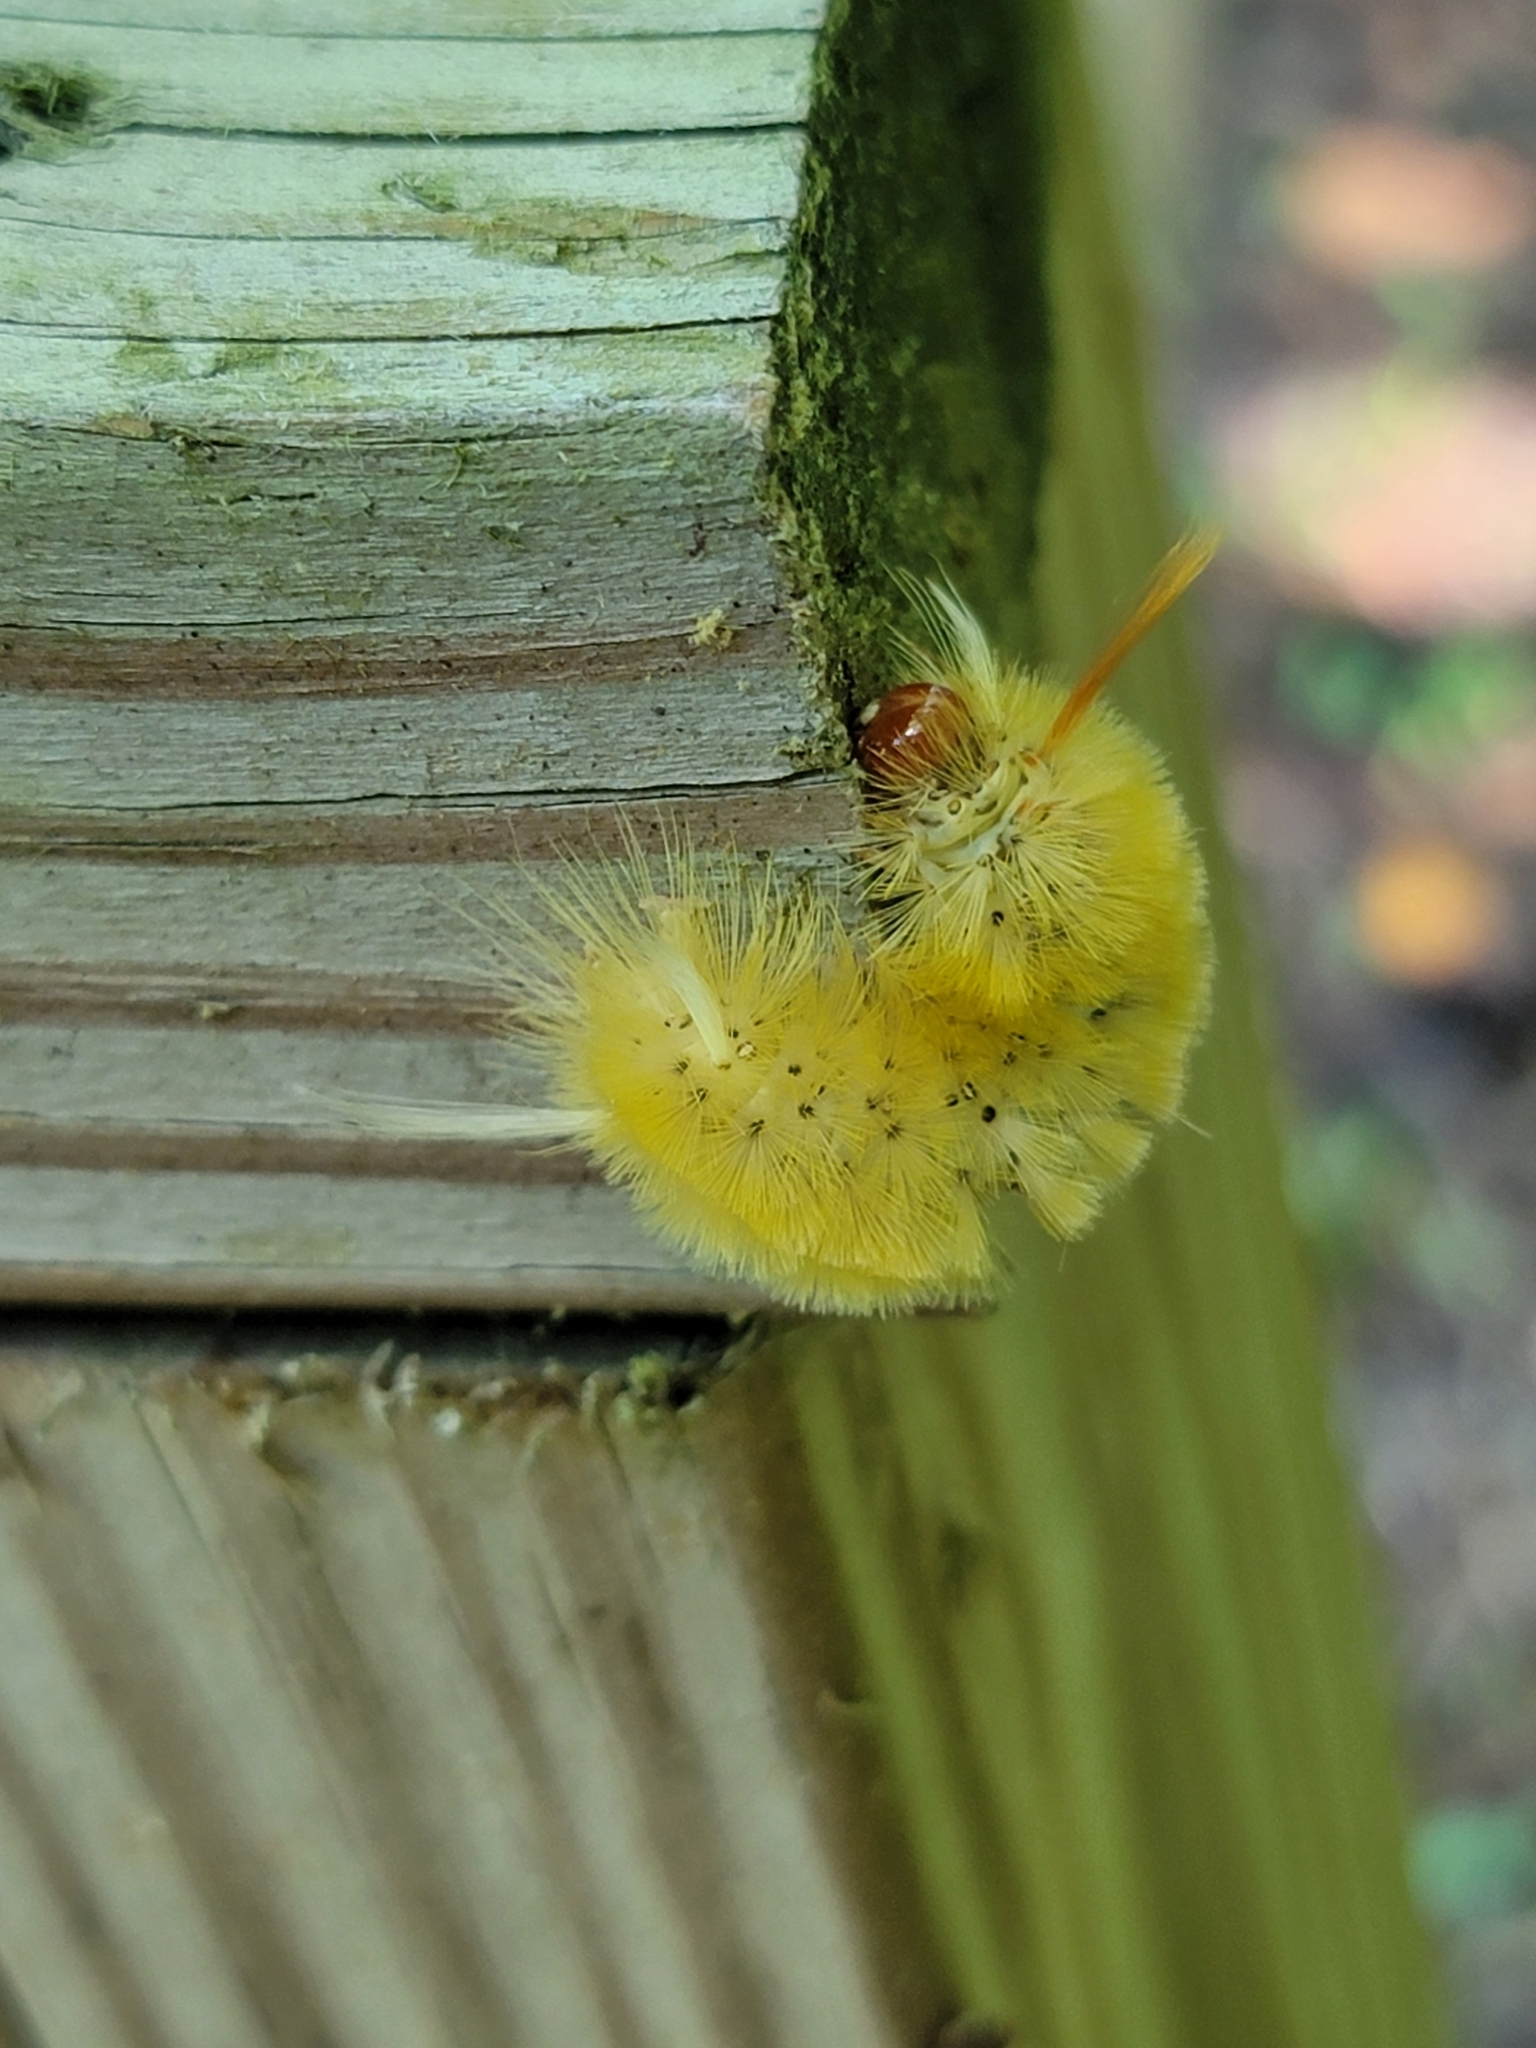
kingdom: Animalia
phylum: Arthropoda
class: Insecta
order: Lepidoptera
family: Erebidae
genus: Halysidota
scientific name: Halysidota harrisii
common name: Sycamore tussock moth
